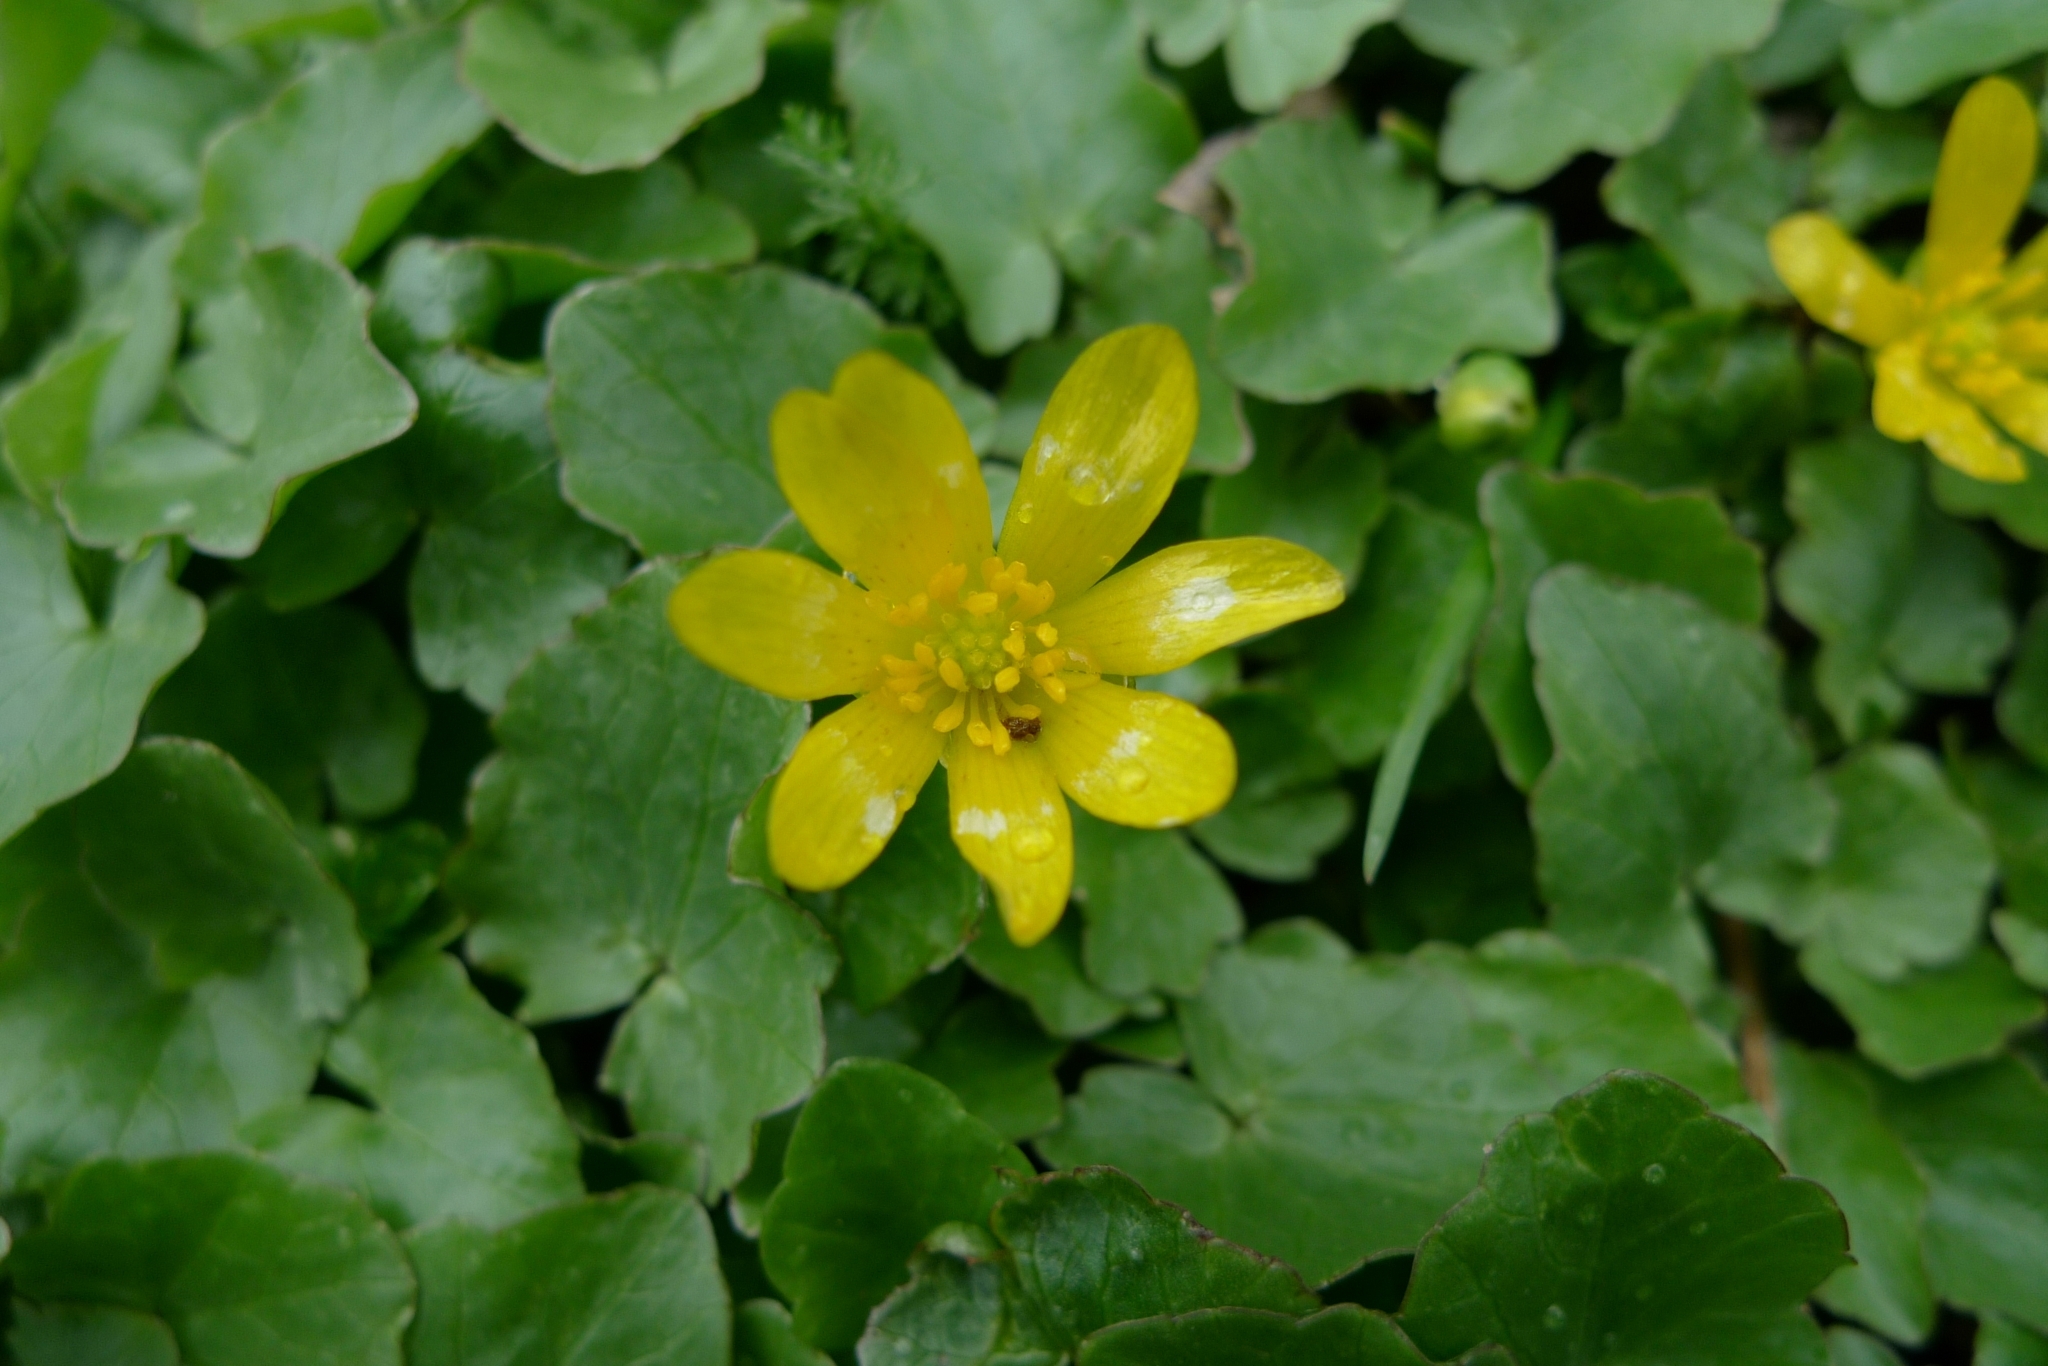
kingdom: Plantae
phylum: Tracheophyta
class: Magnoliopsida
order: Ranunculales
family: Ranunculaceae
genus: Ficaria
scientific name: Ficaria verna
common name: Lesser celandine
